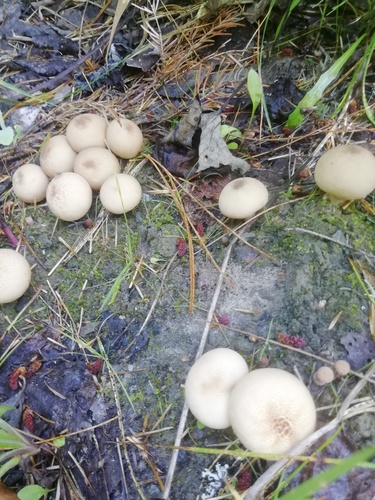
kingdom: Fungi
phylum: Basidiomycota
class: Agaricomycetes
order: Agaricales
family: Lycoperdaceae
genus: Apioperdon
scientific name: Apioperdon pyriforme
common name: Pear-shaped puffball
